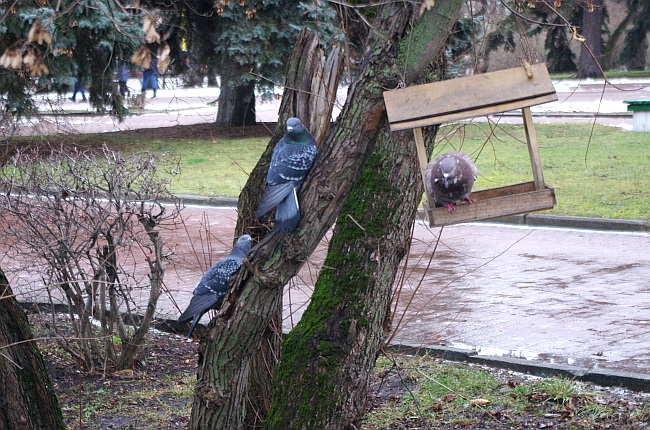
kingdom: Animalia
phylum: Chordata
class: Aves
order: Columbiformes
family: Columbidae
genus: Columba
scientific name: Columba livia
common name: Rock pigeon
